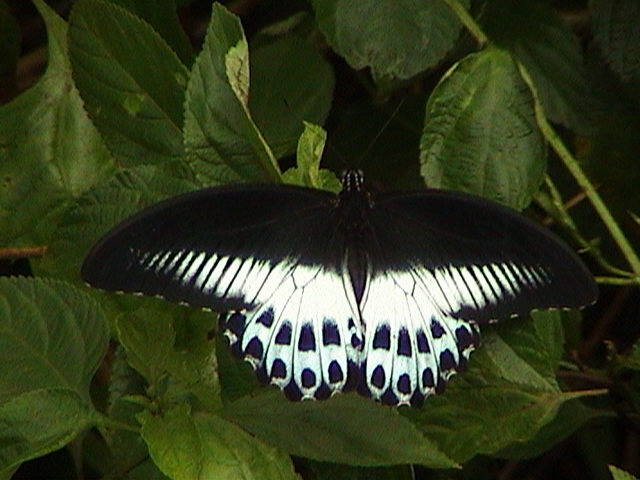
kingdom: Animalia
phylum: Arthropoda
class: Insecta
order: Lepidoptera
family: Papilionidae
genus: Papilio
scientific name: Papilio memnon
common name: Great mormon
